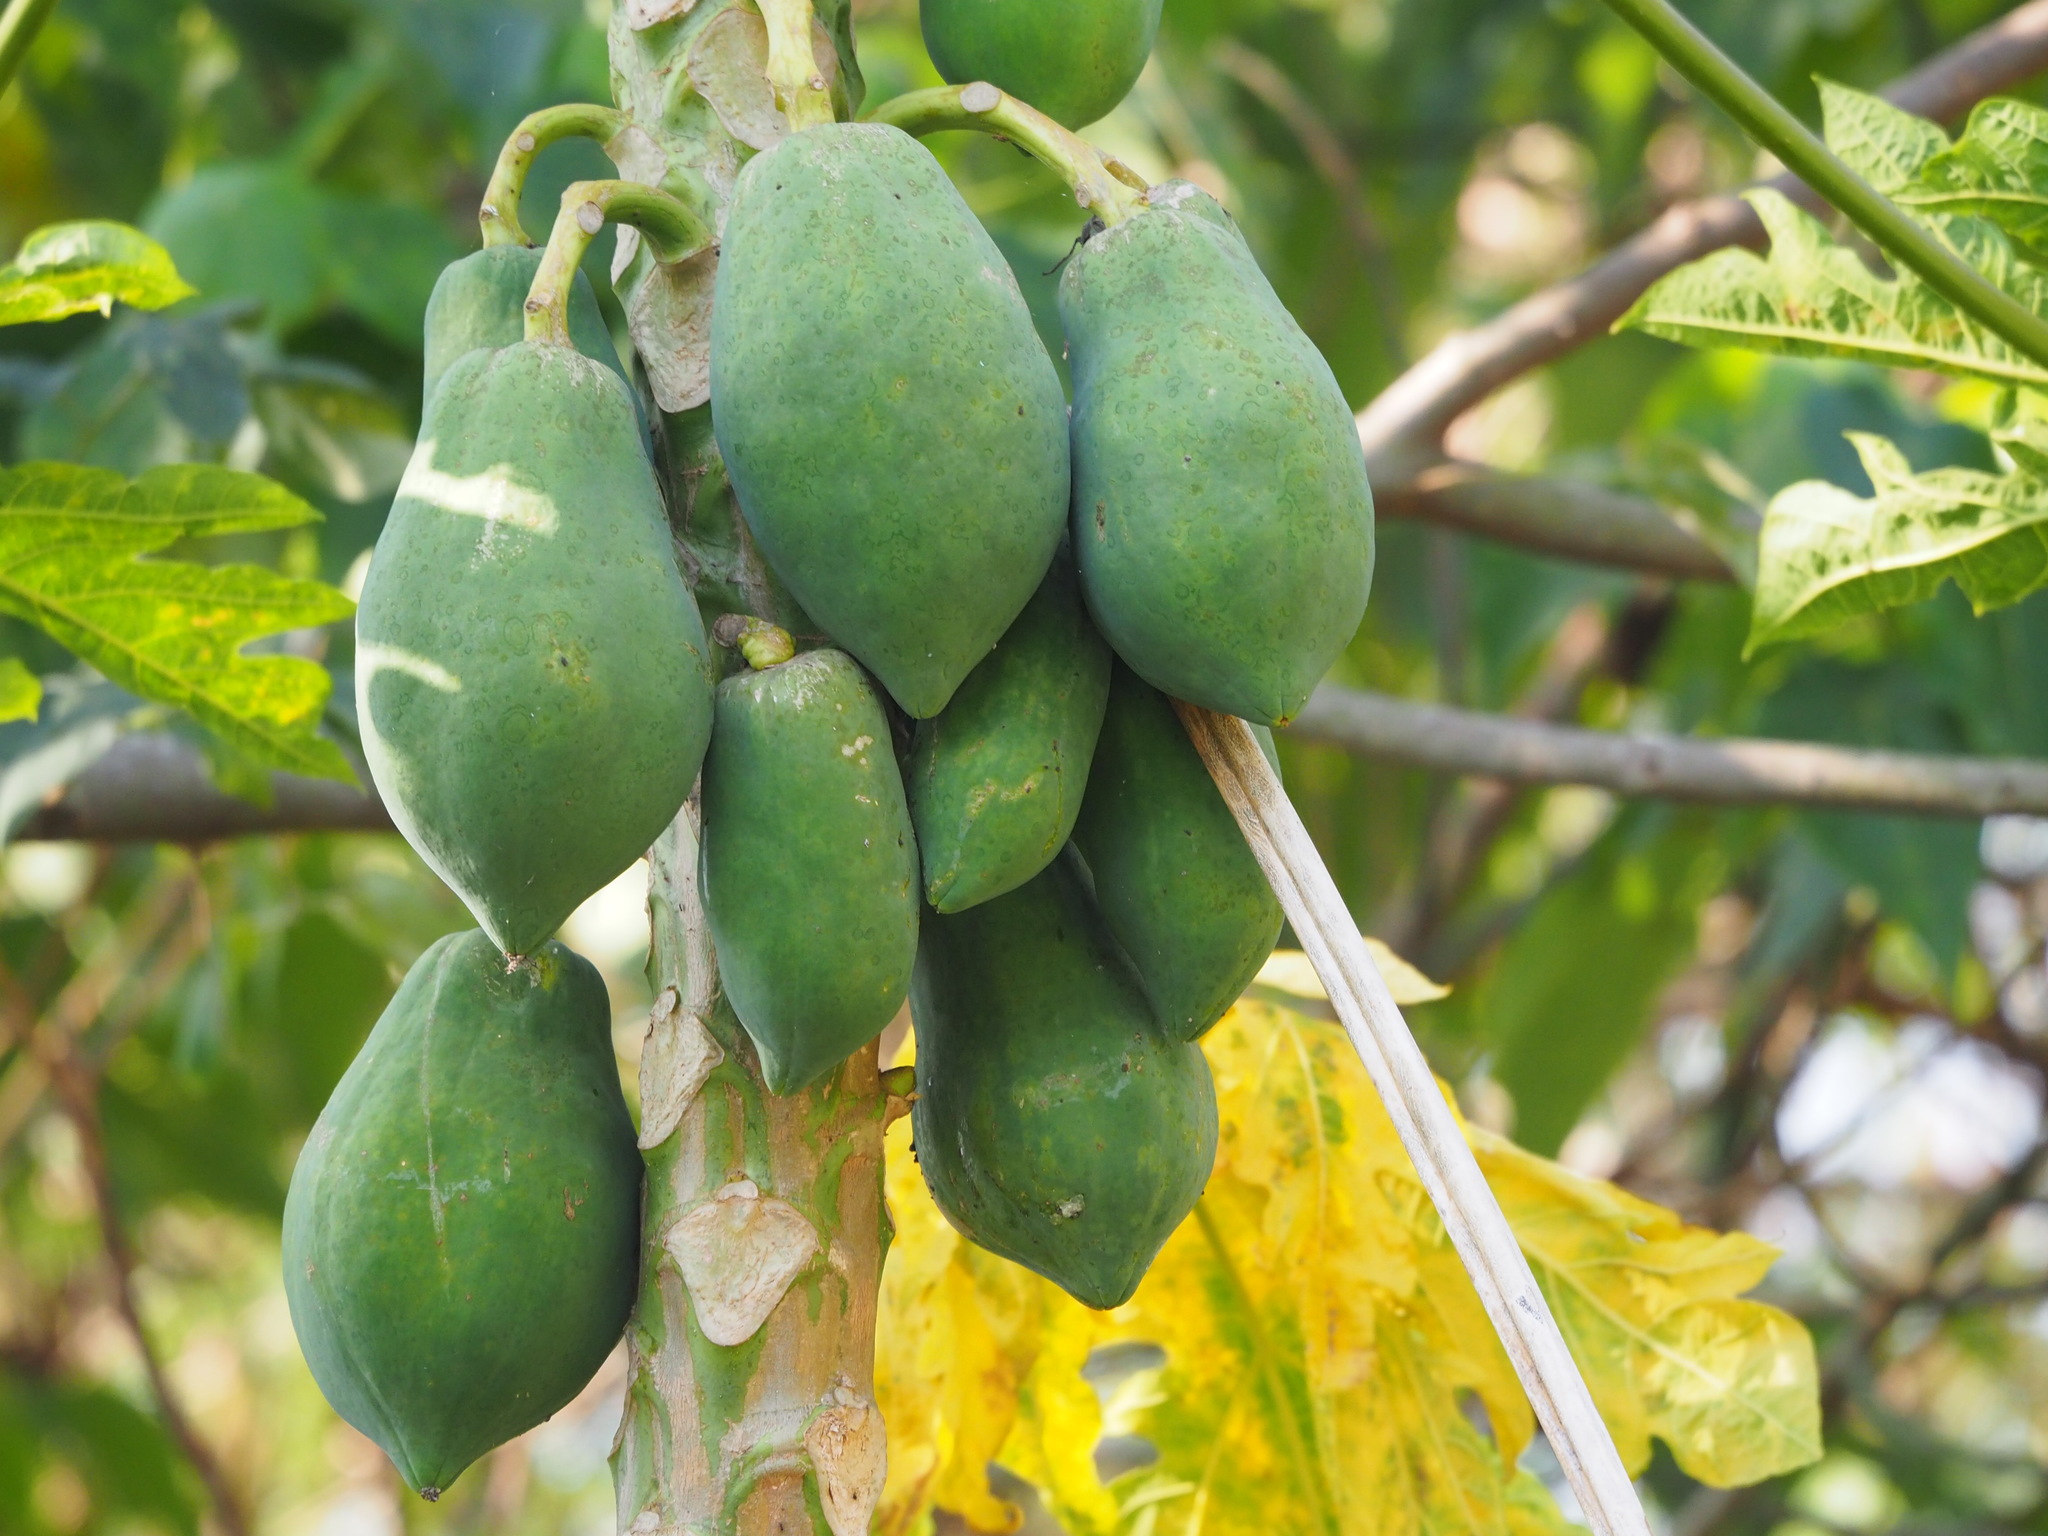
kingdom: Plantae
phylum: Tracheophyta
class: Magnoliopsida
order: Brassicales
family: Caricaceae
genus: Carica
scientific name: Carica papaya
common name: Papaya
